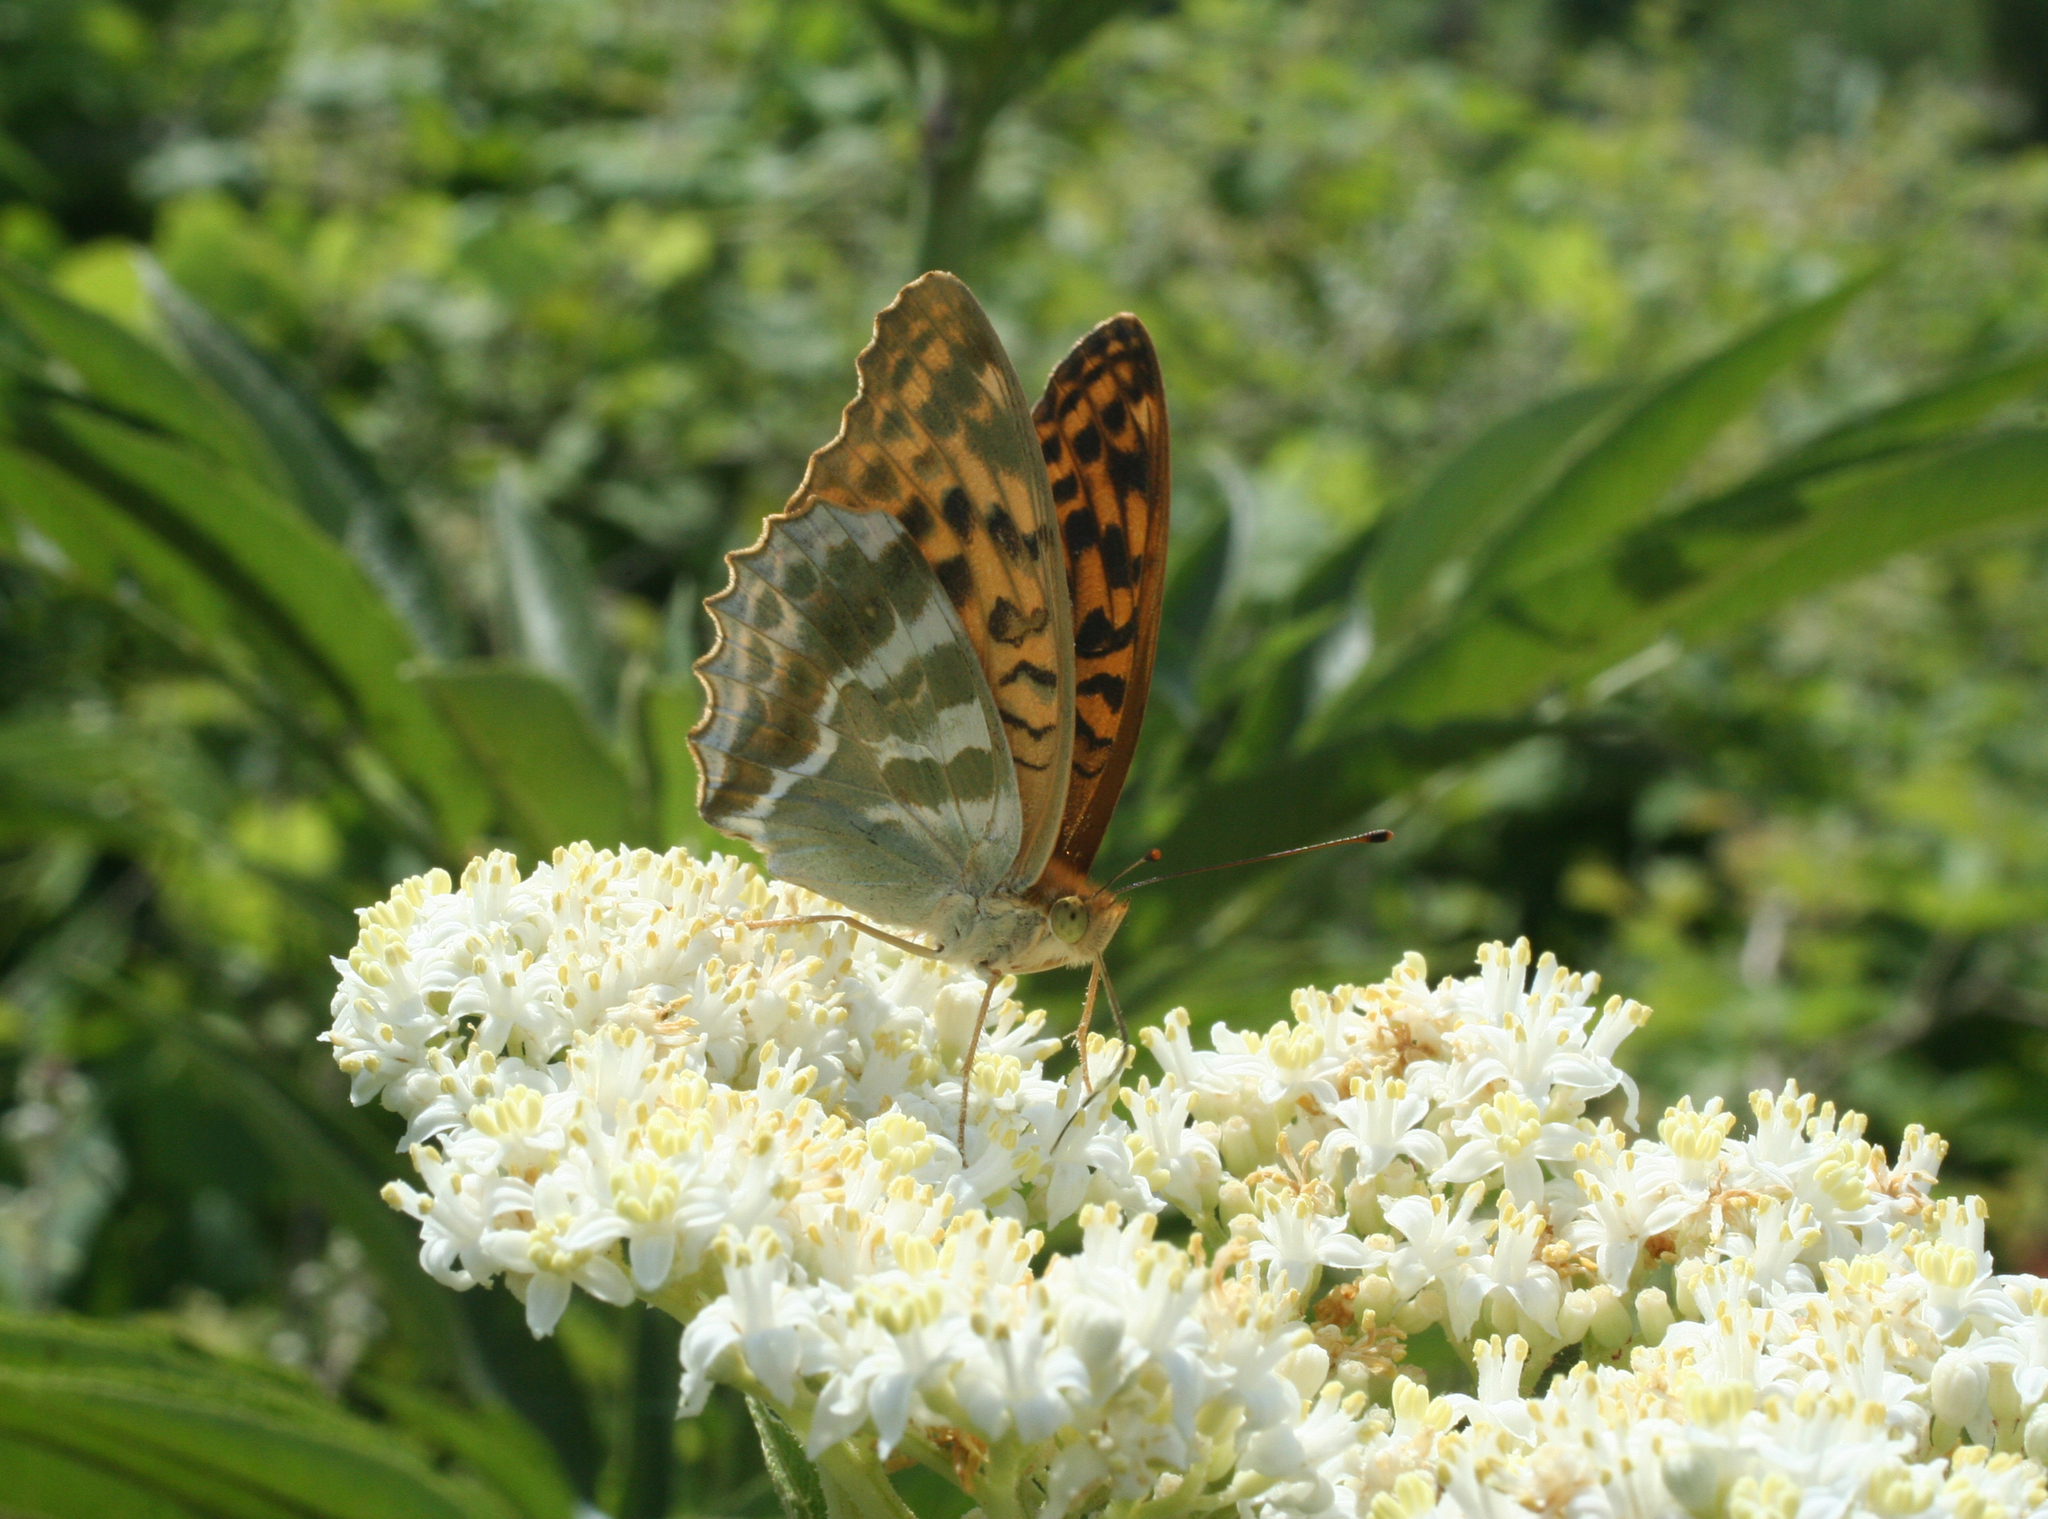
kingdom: Animalia
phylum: Arthropoda
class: Insecta
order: Lepidoptera
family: Nymphalidae
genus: Argynnis
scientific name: Argynnis paphia
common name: Silver-washed fritillary
